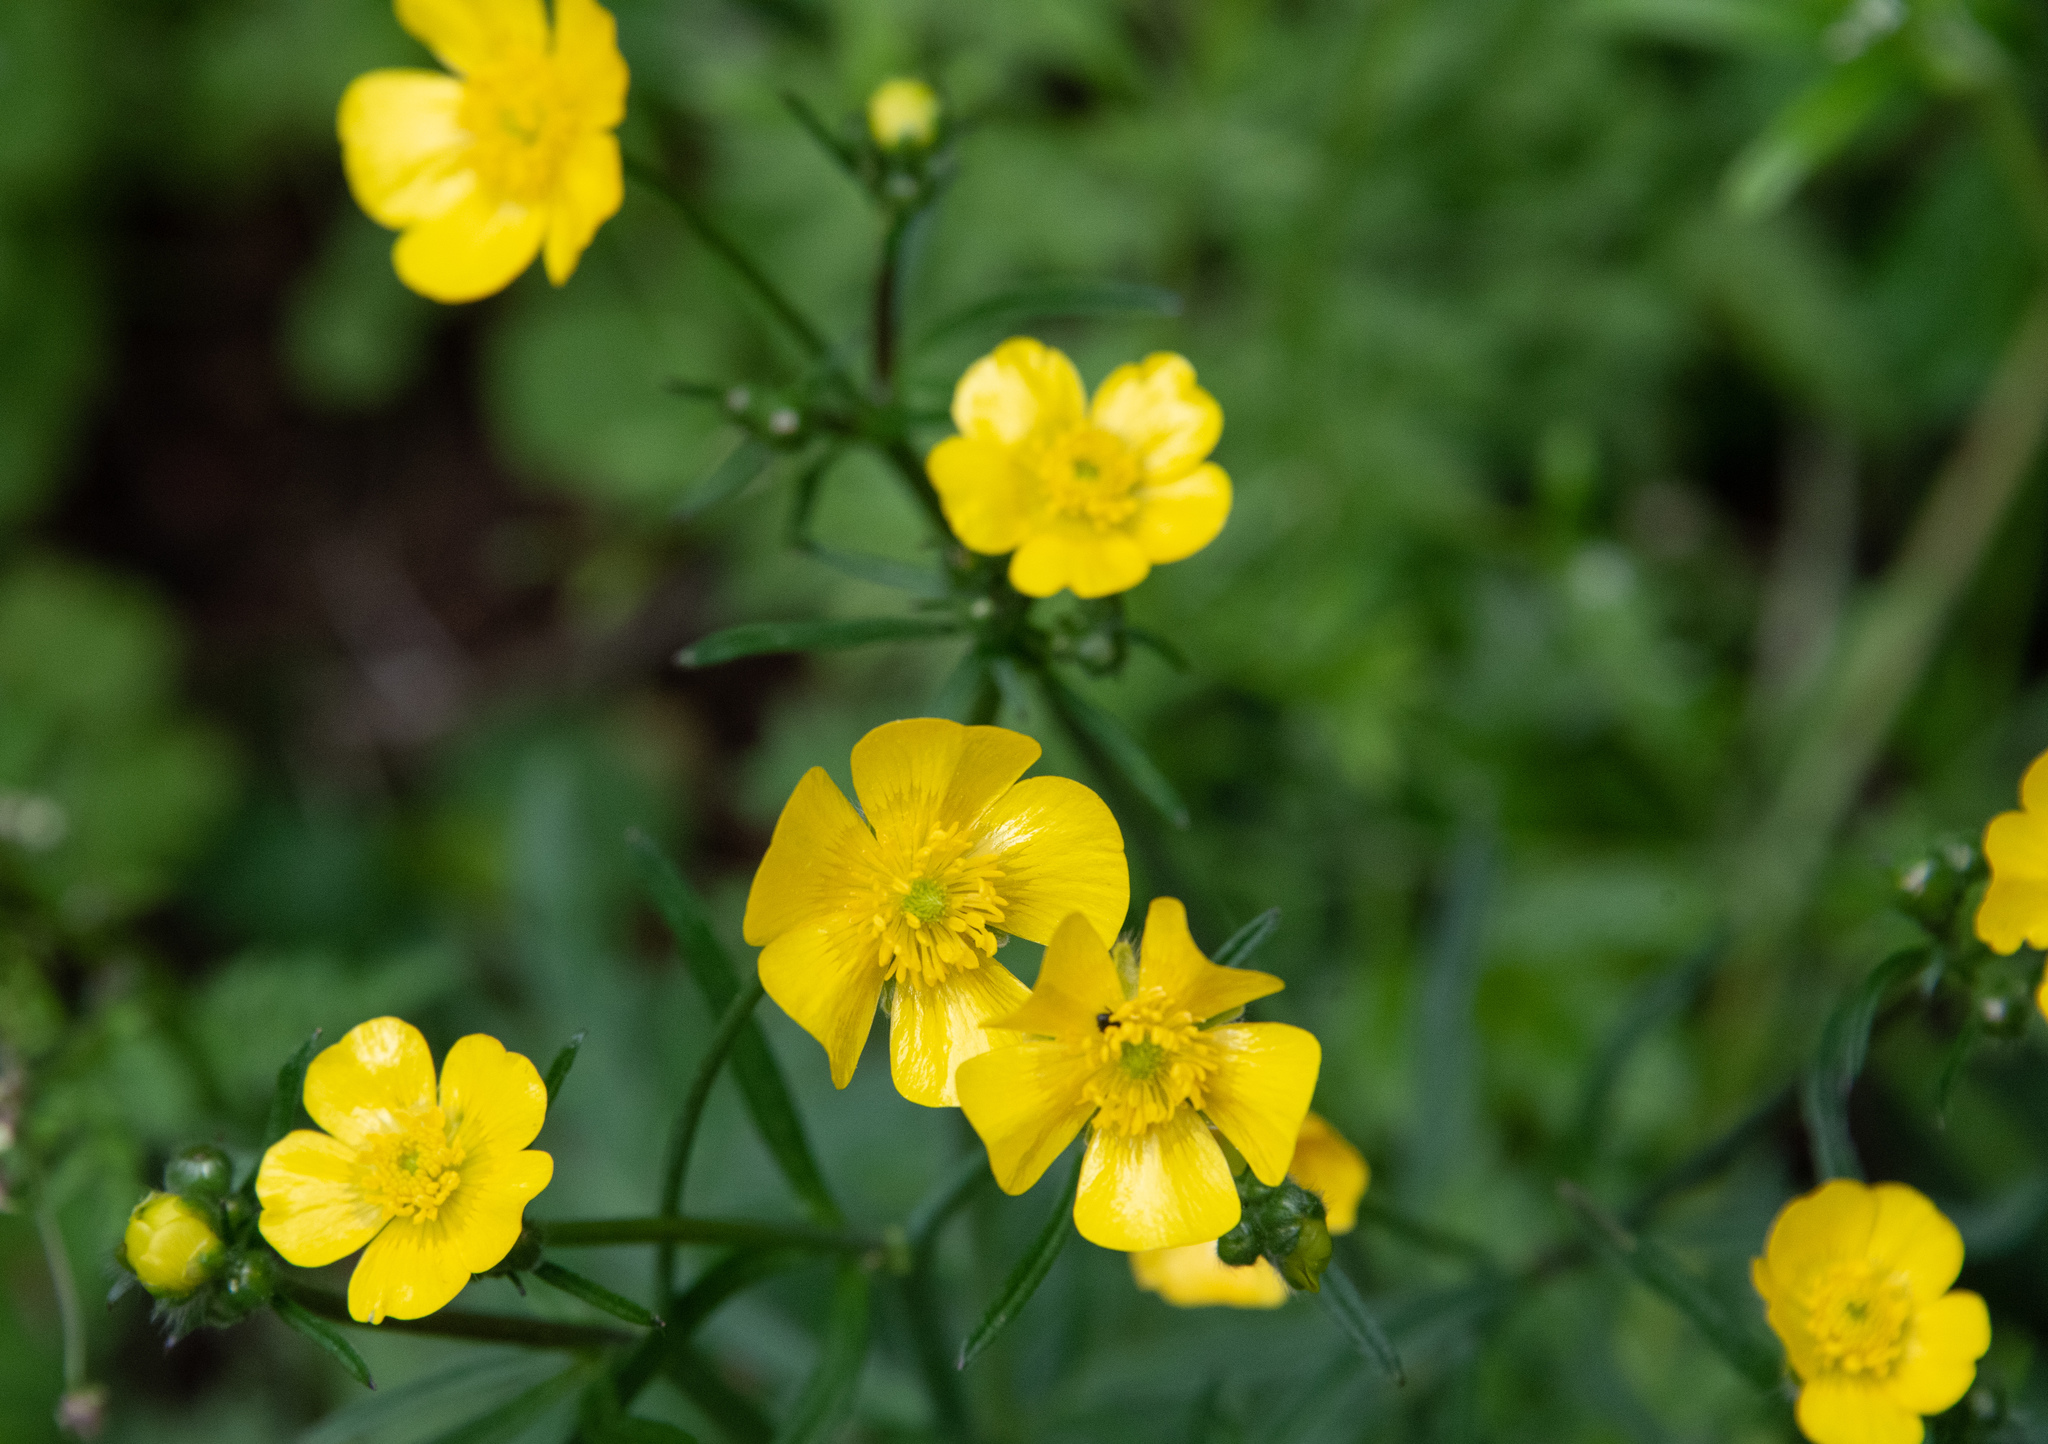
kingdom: Plantae
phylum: Tracheophyta
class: Magnoliopsida
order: Ranunculales
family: Ranunculaceae
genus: Ranunculus
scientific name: Ranunculus acris
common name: Meadow buttercup
